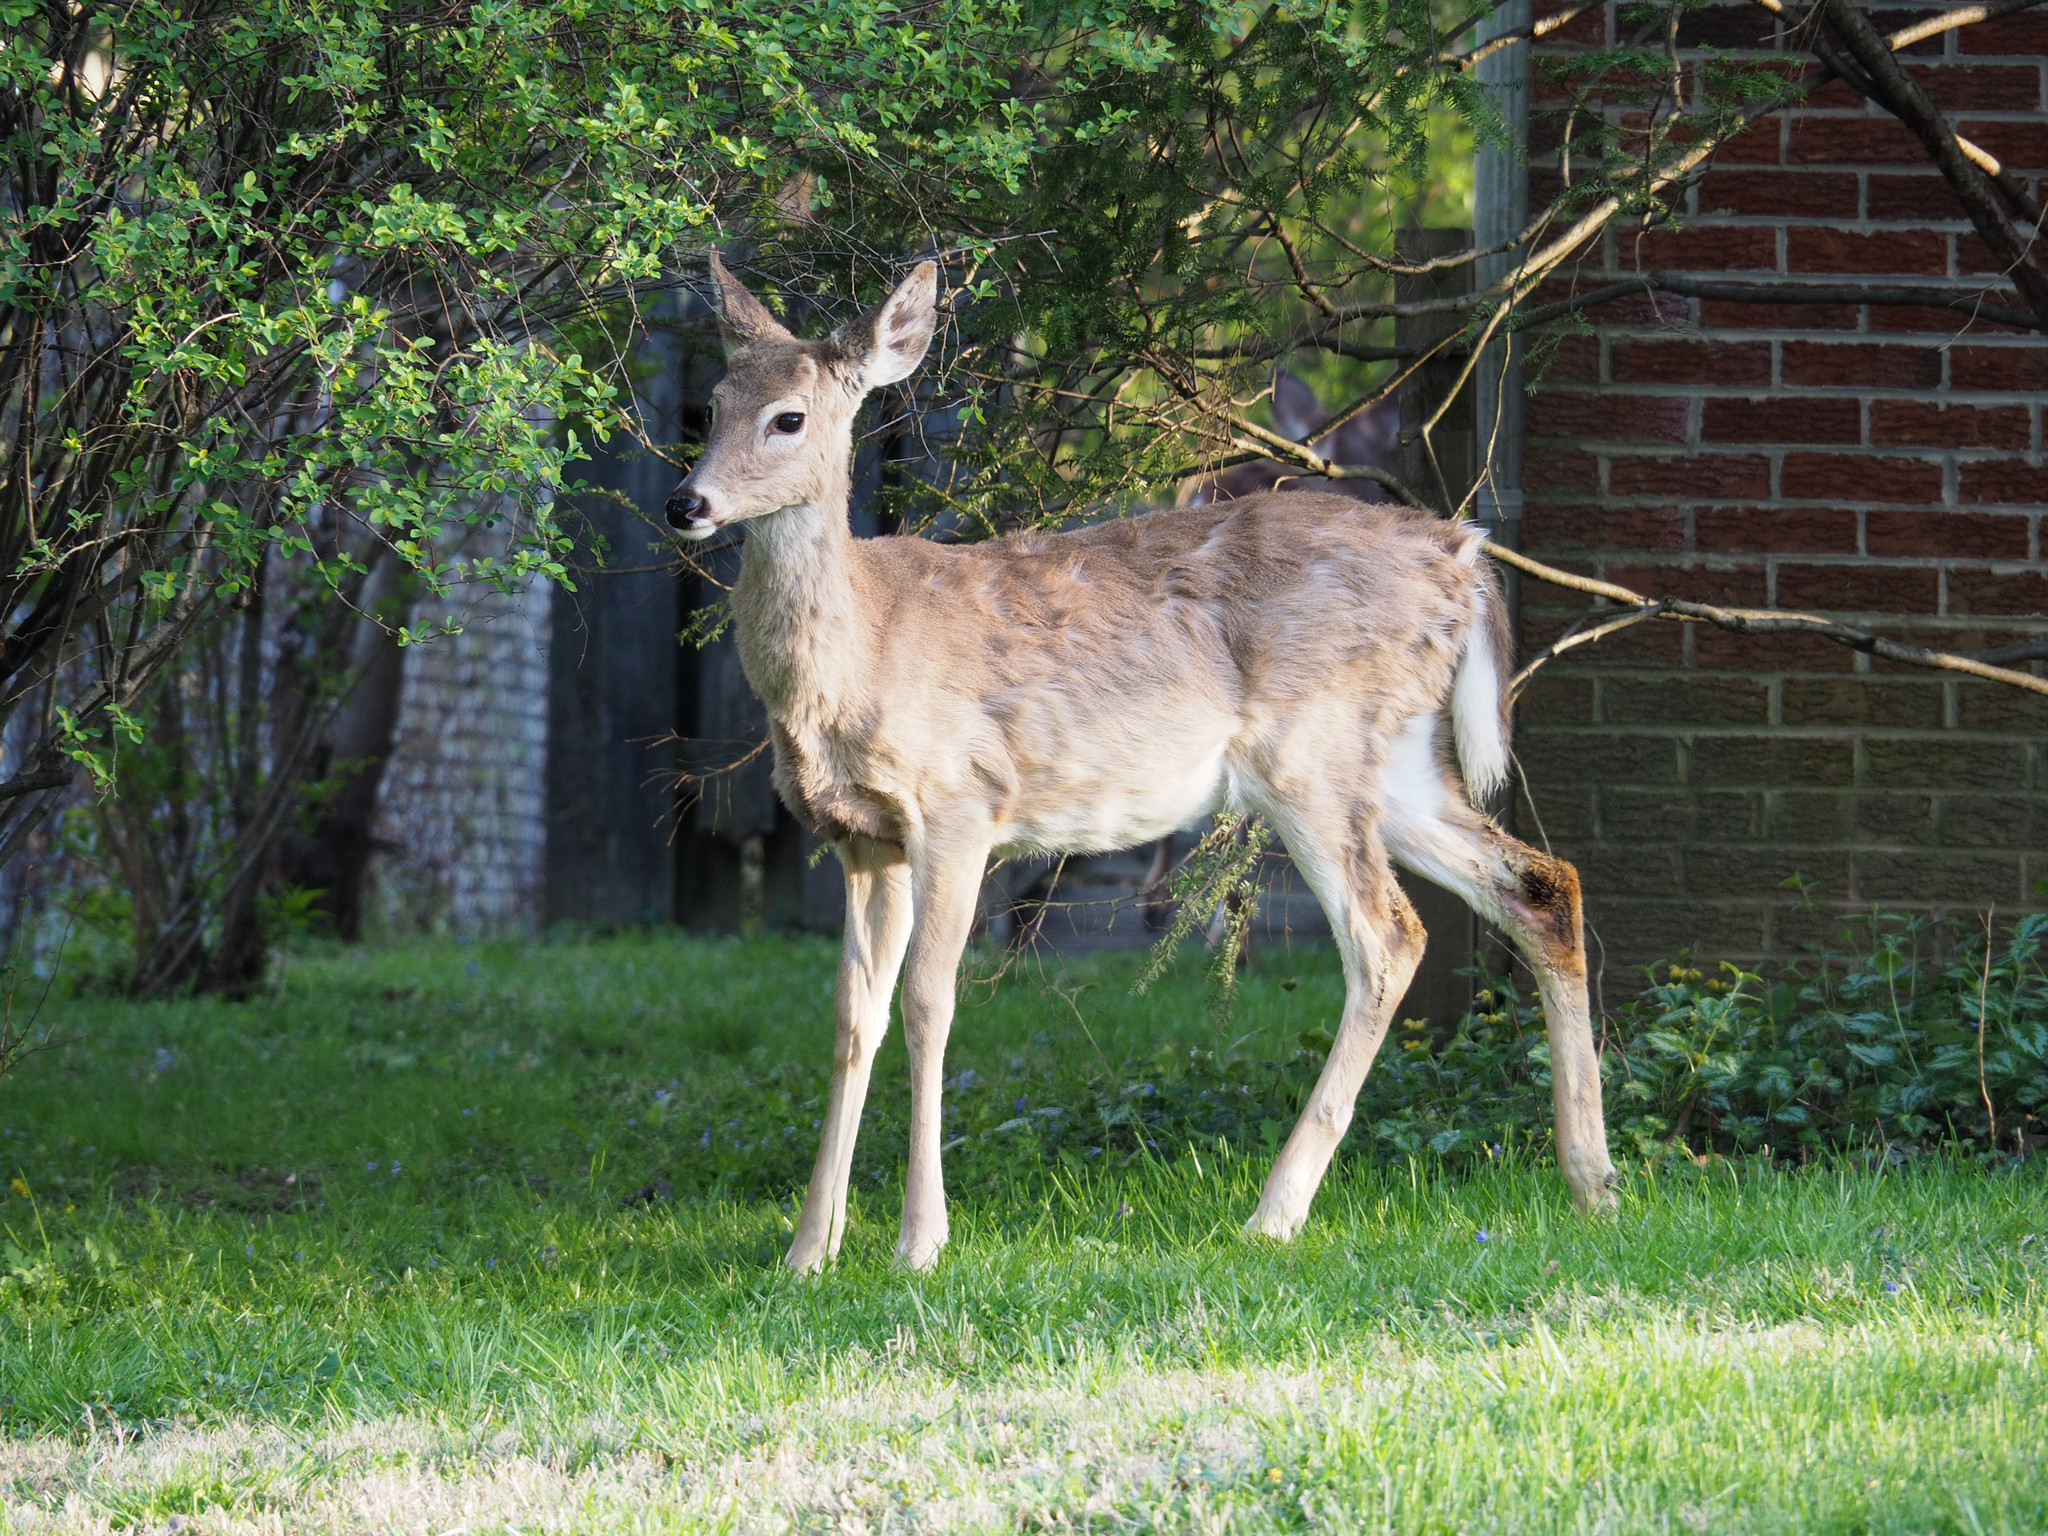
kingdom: Animalia
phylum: Chordata
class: Mammalia
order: Artiodactyla
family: Cervidae
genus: Odocoileus
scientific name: Odocoileus virginianus
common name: White-tailed deer
